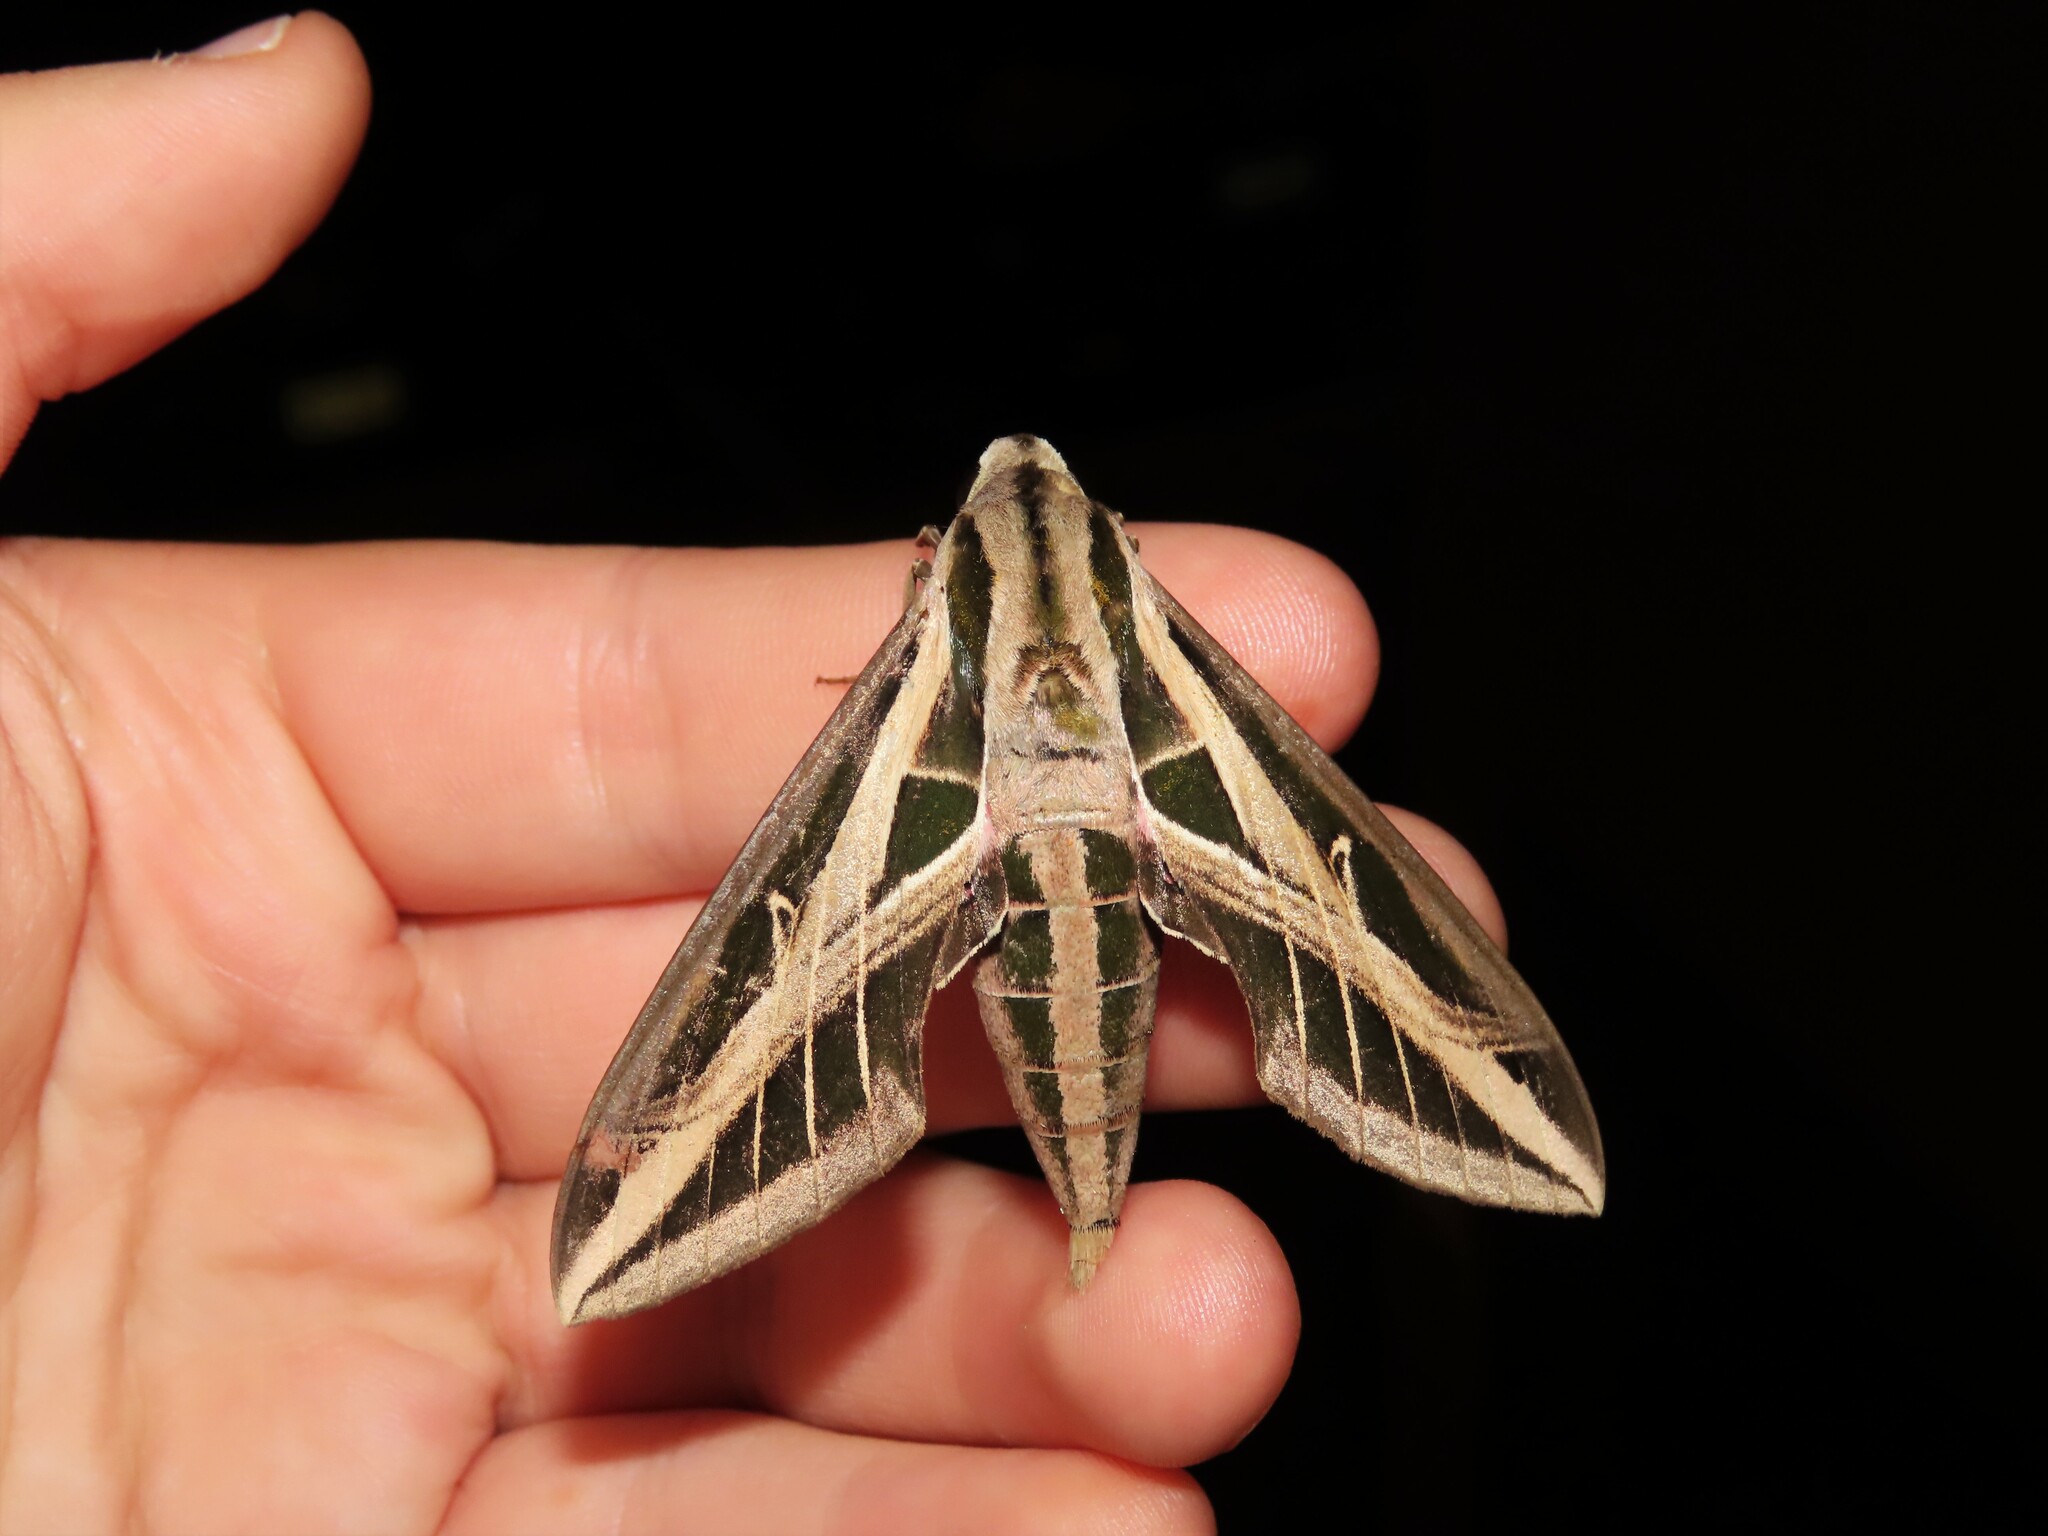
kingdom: Animalia
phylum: Arthropoda
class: Insecta
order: Lepidoptera
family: Sphingidae
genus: Eumorpha
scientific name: Eumorpha fasciatus
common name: Banded sphinx
